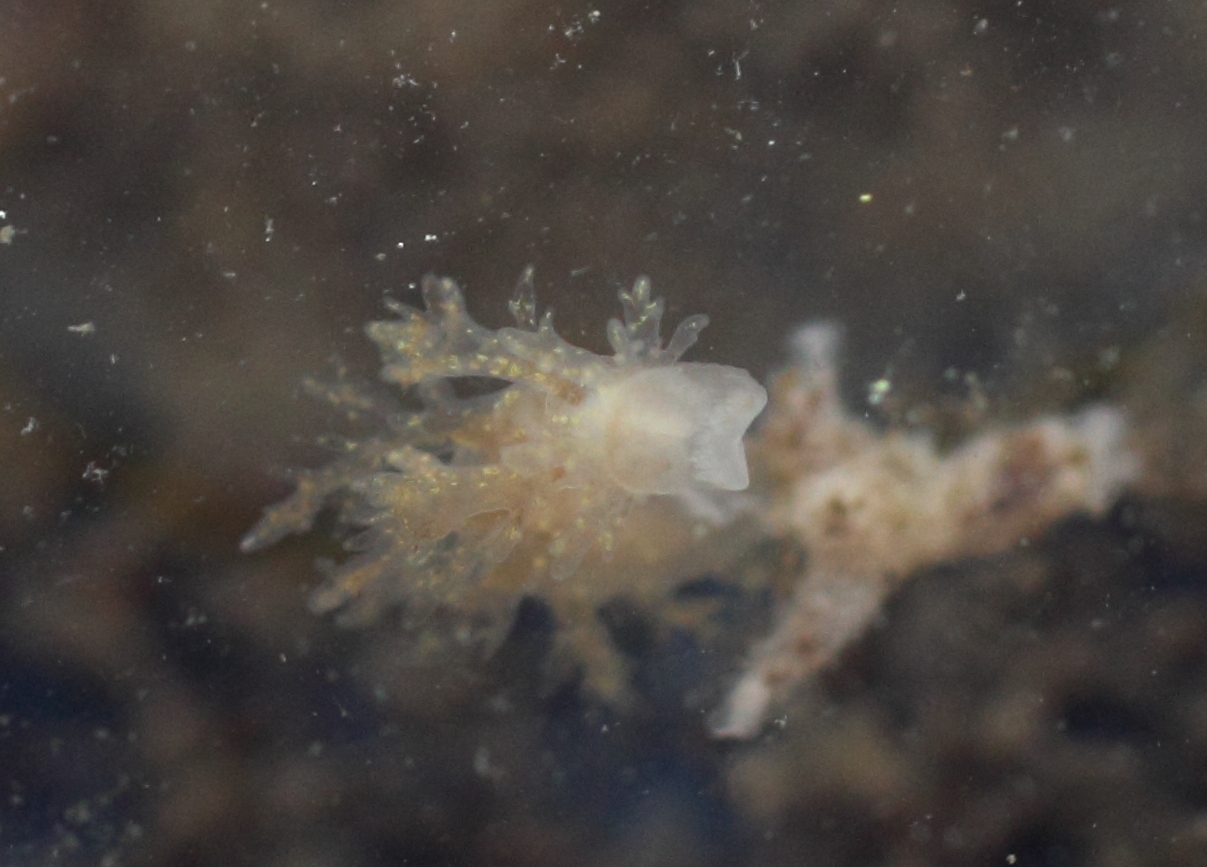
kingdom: Animalia
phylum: Mollusca
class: Gastropoda
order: Nudibranchia
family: Dendronotidae
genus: Dendronotus
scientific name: Dendronotus venustus
